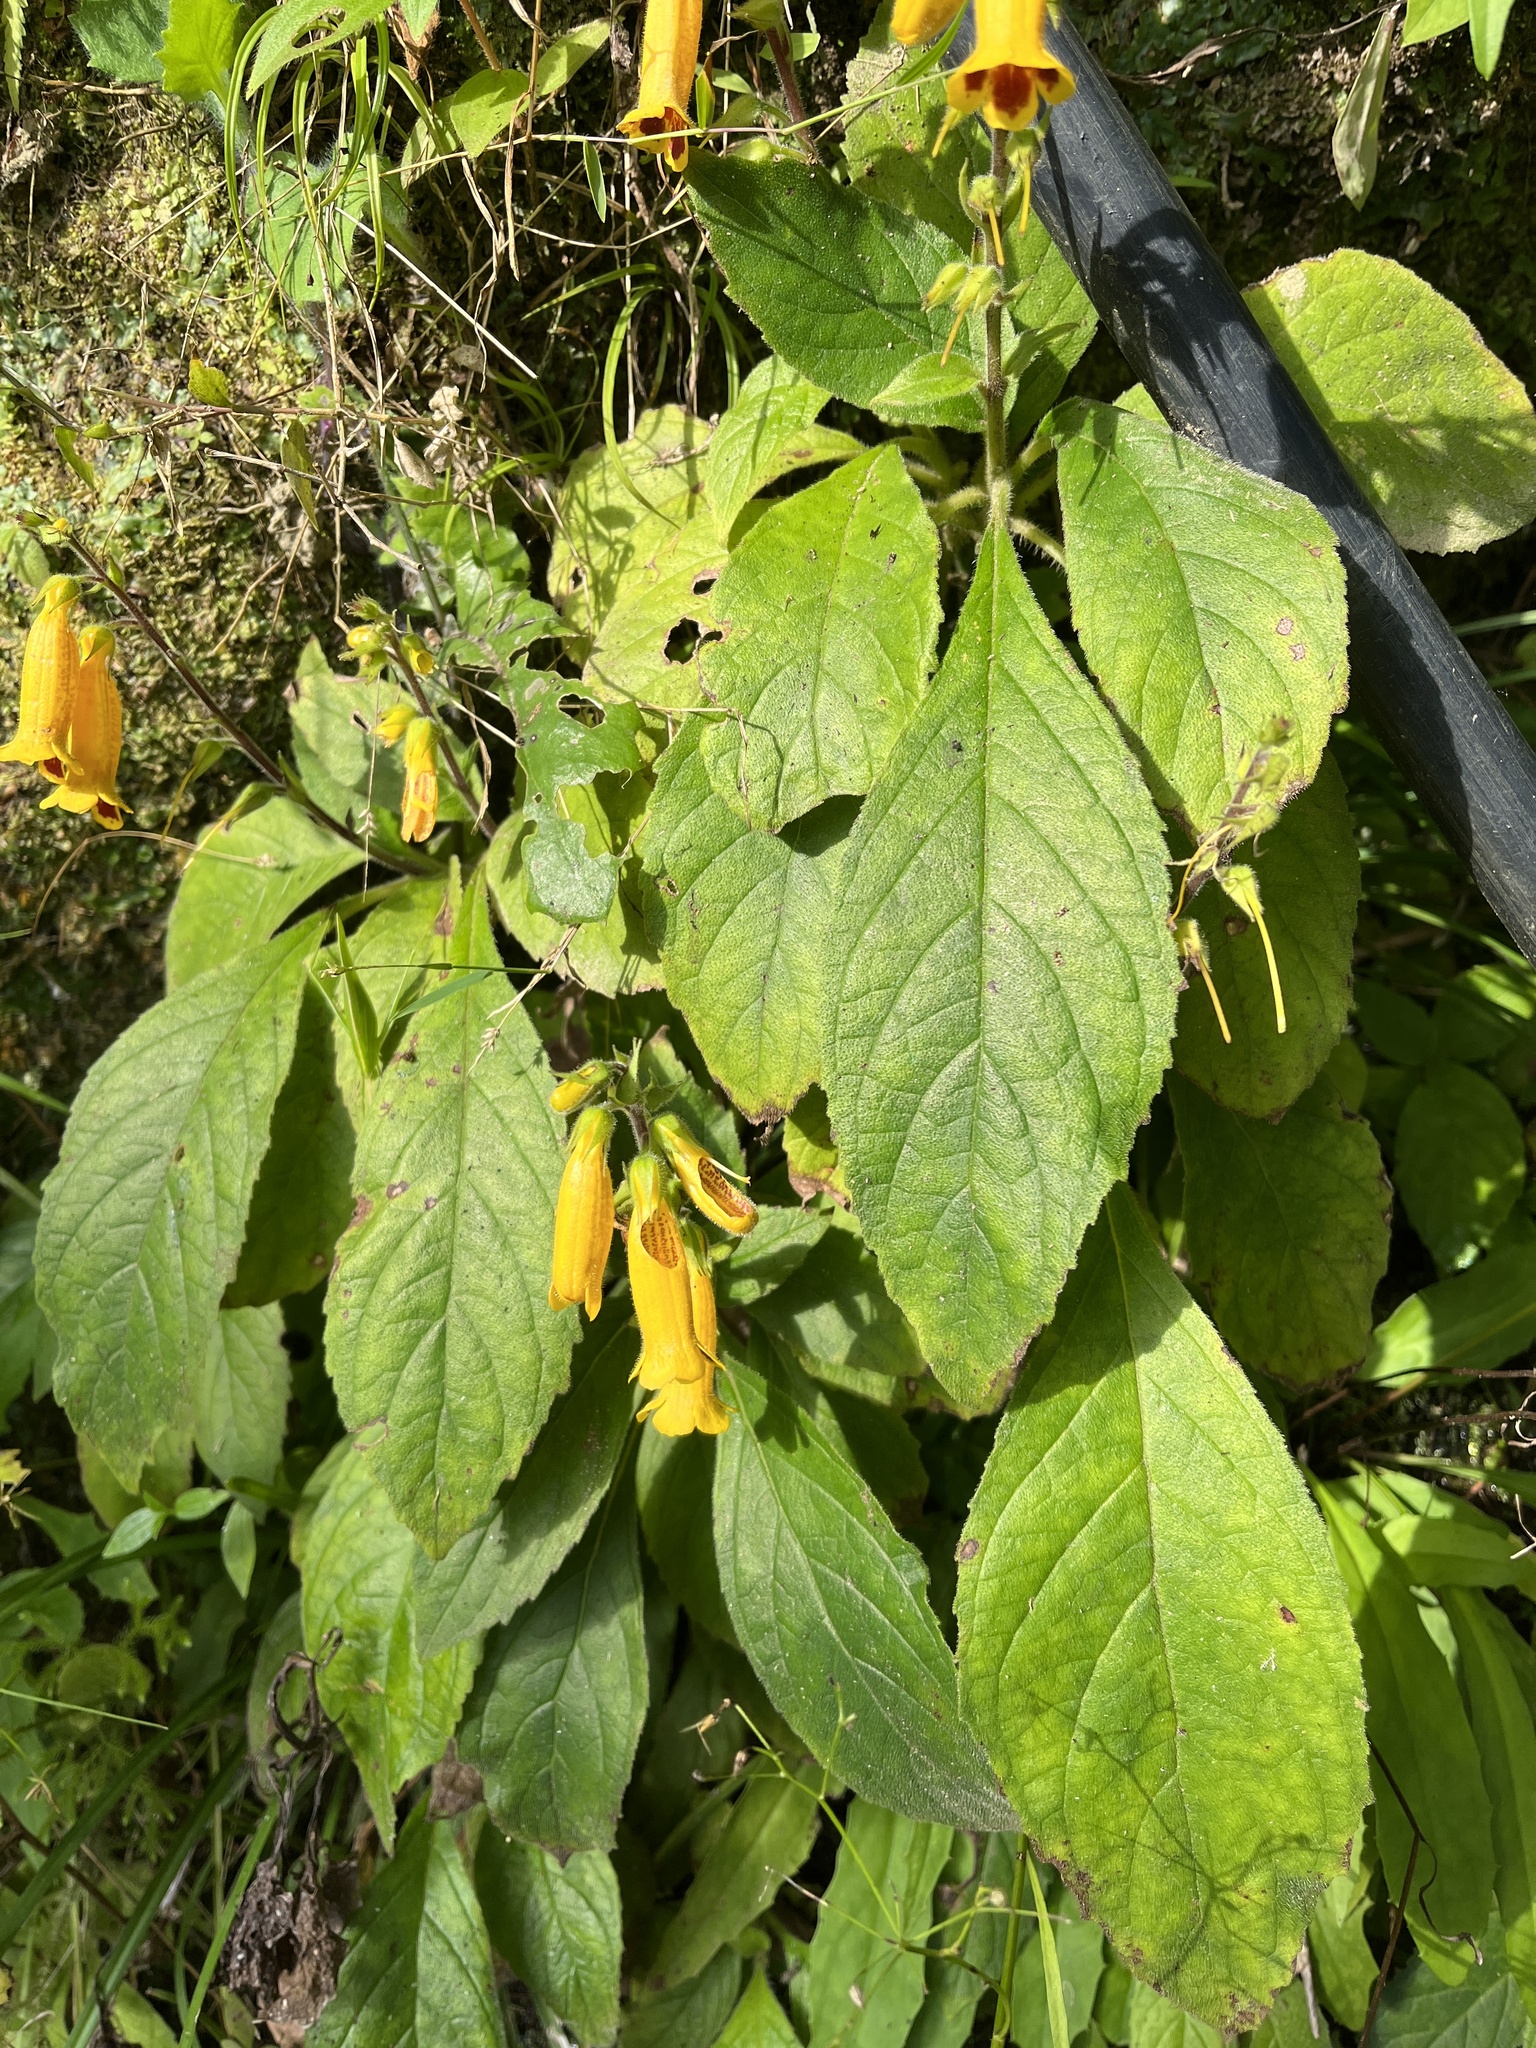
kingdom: Plantae
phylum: Tracheophyta
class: Magnoliopsida
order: Lamiales
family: Gesneriaceae
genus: Titanotrichum
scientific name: Titanotrichum oldhamii
